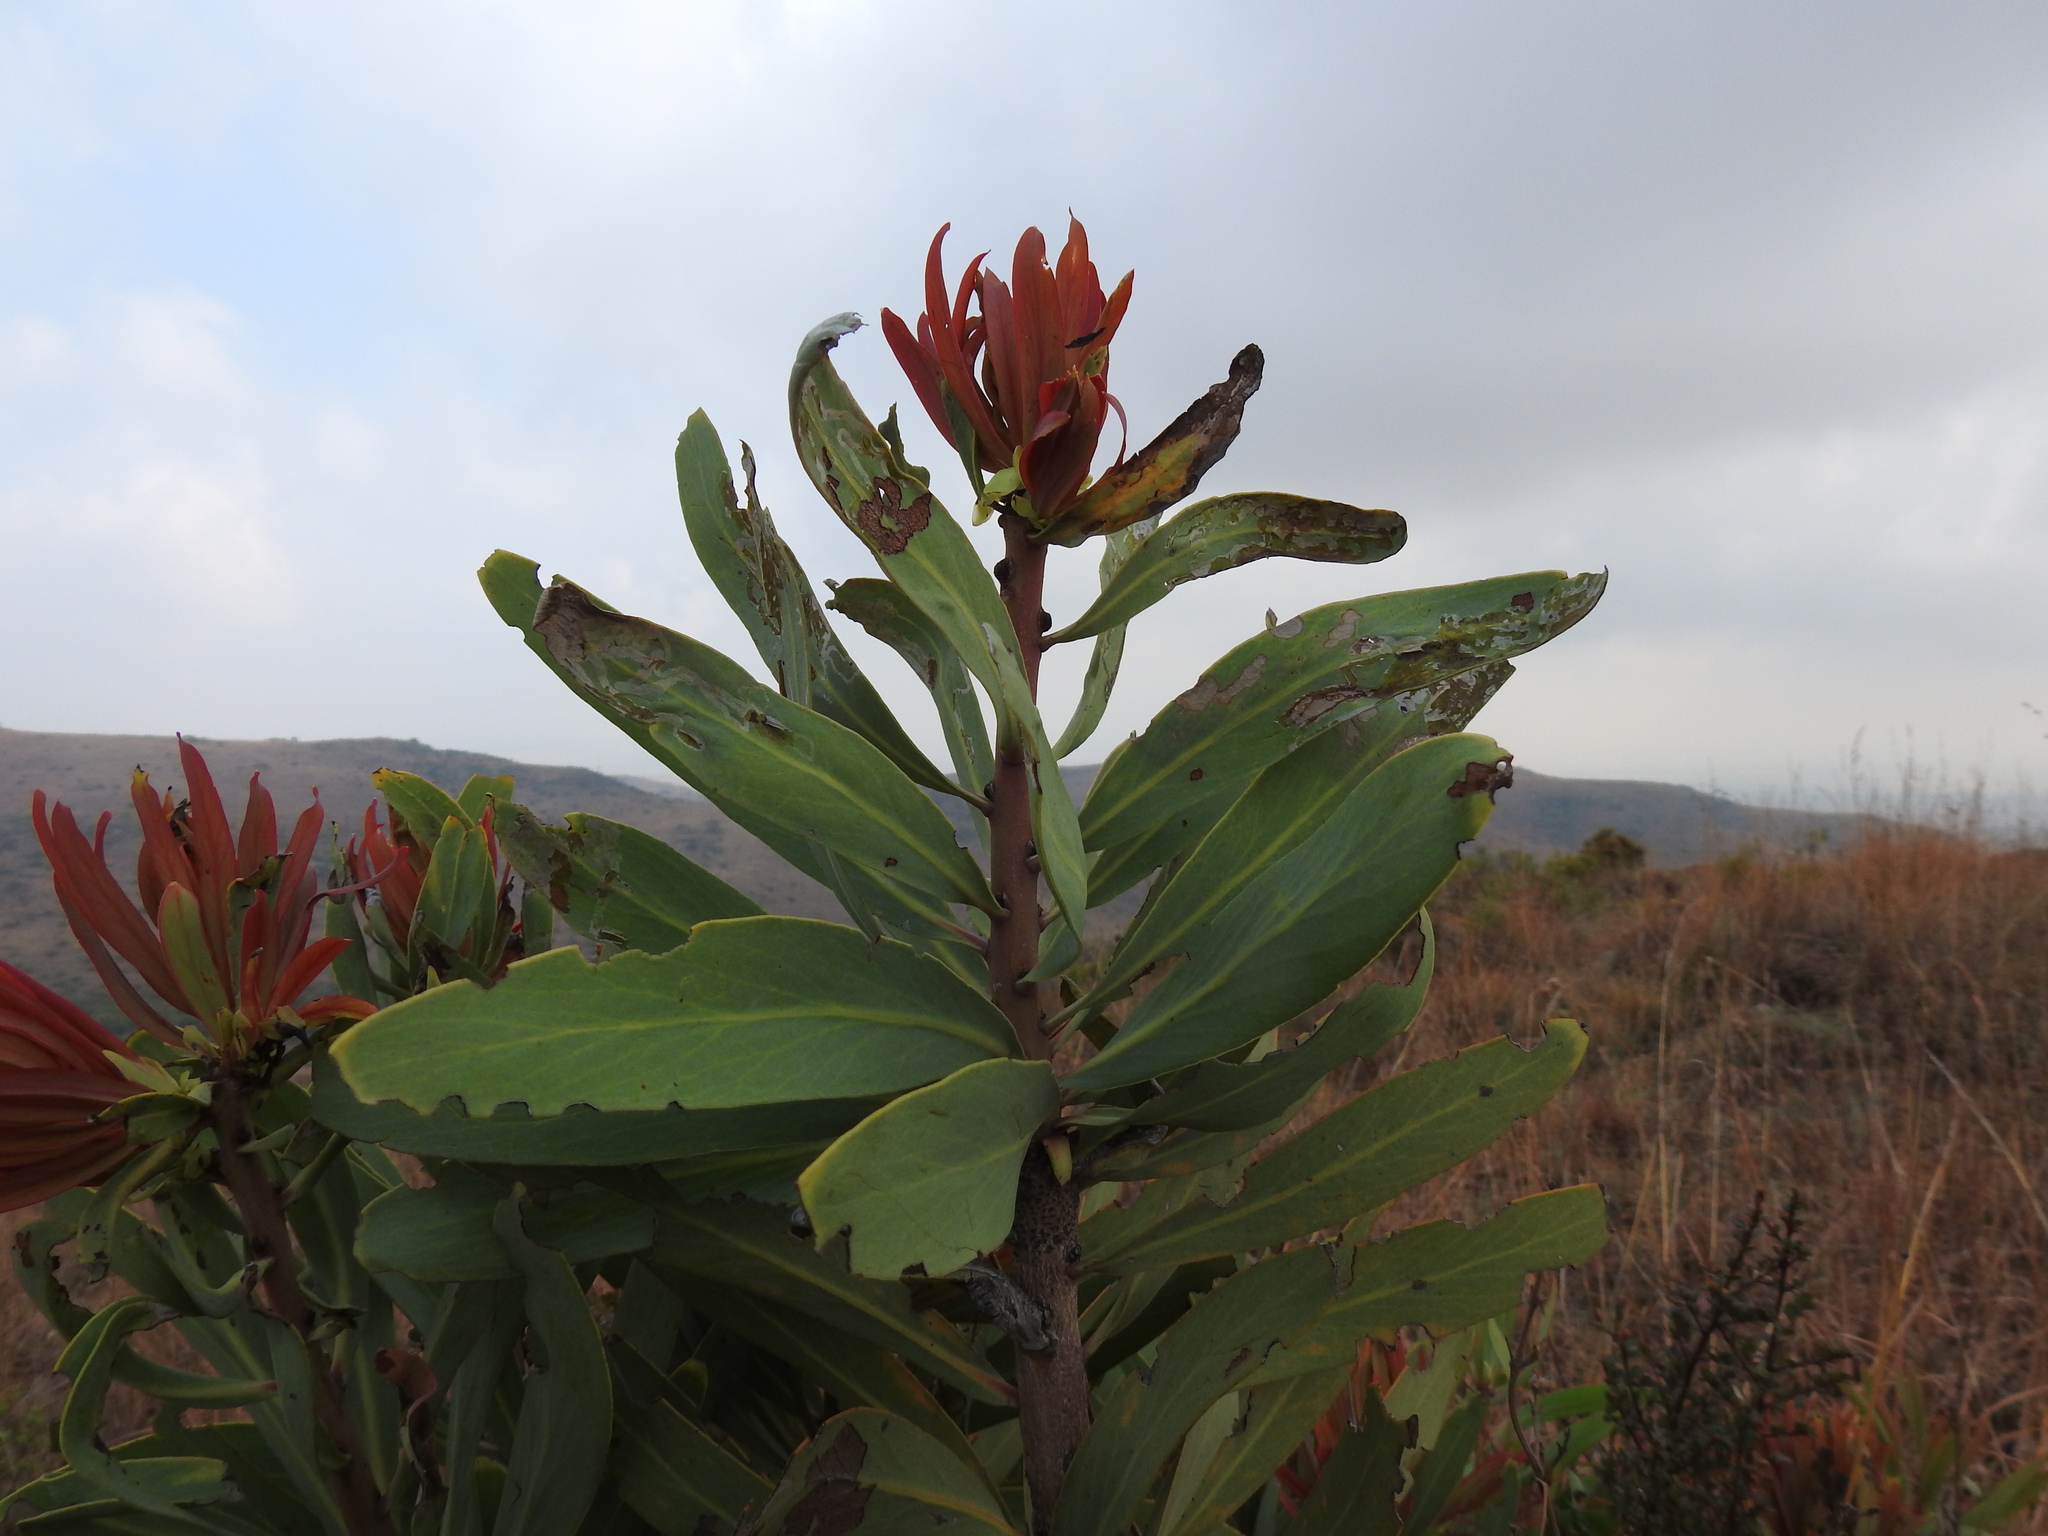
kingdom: Plantae
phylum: Tracheophyta
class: Magnoliopsida
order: Proteales
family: Proteaceae
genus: Protea
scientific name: Protea caffra
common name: Common sugarbush
